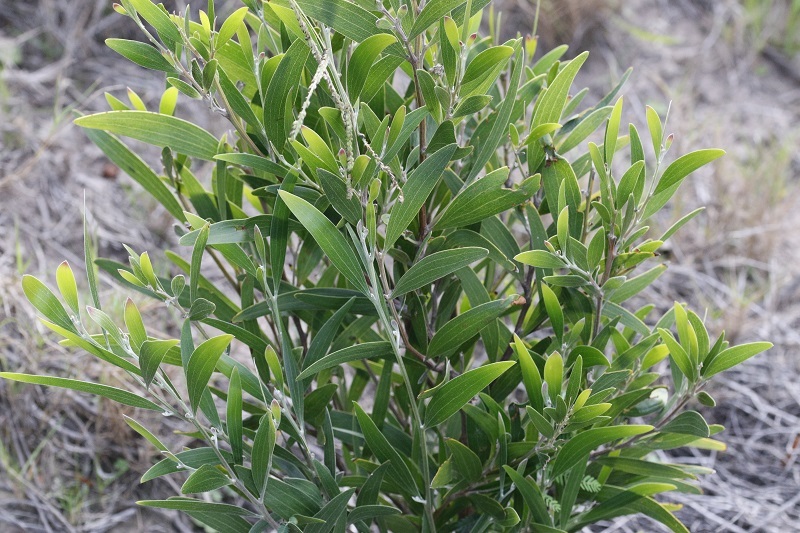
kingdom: Plantae
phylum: Tracheophyta
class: Magnoliopsida
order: Fabales
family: Fabaceae
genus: Acacia
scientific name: Acacia melanoxylon
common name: Blackwood
